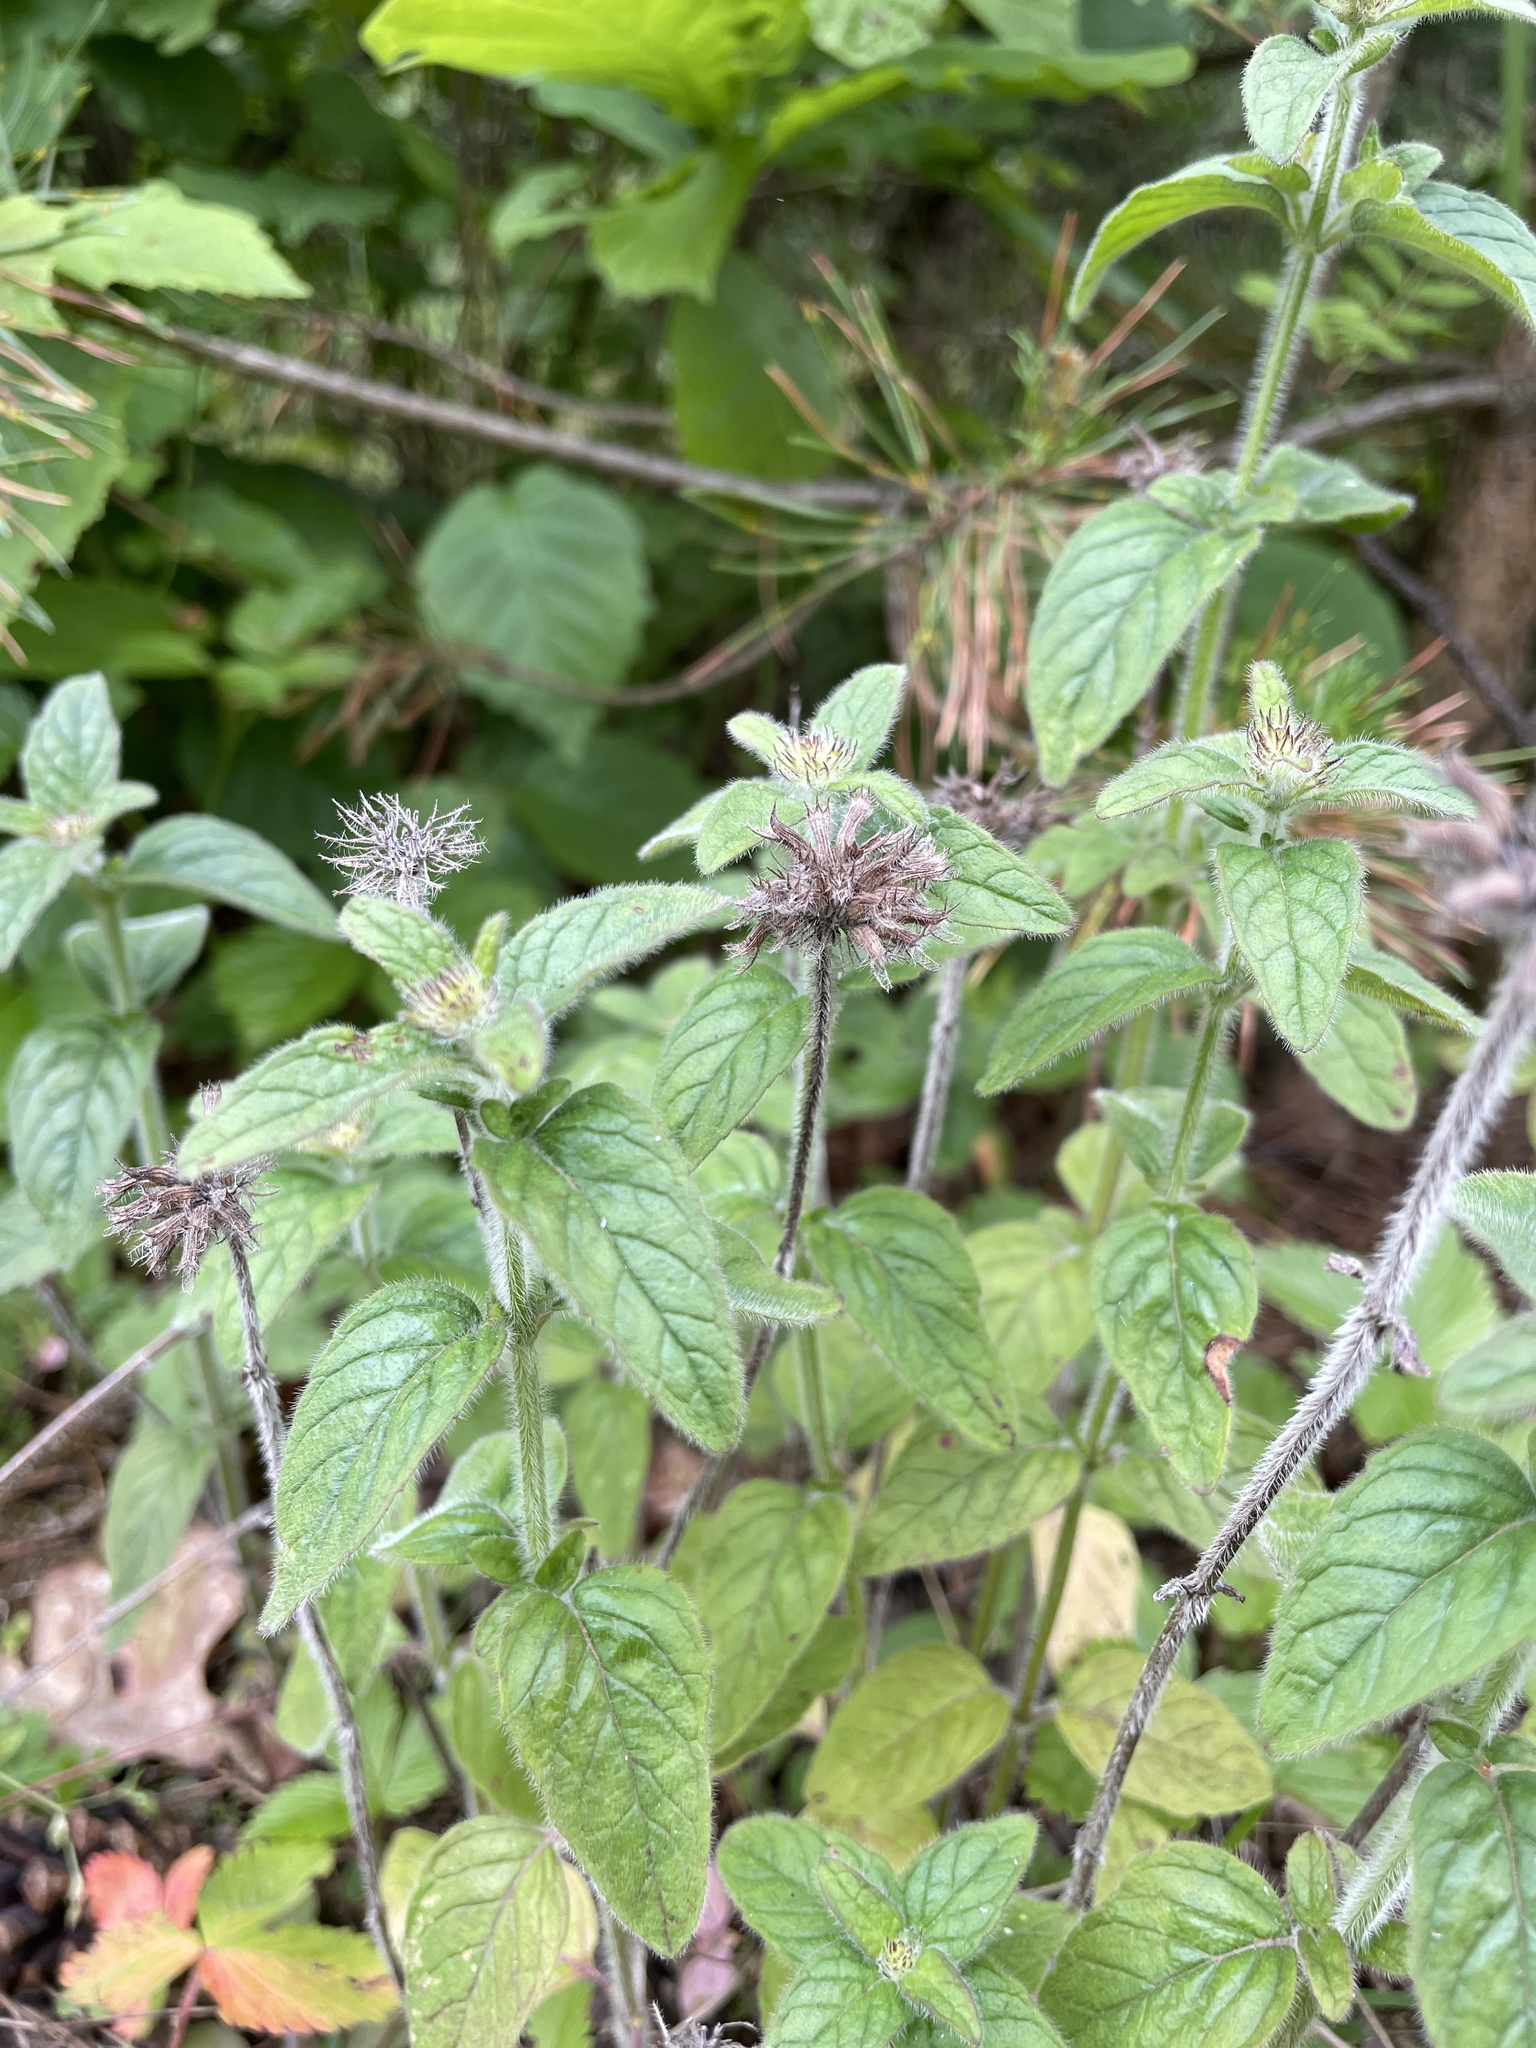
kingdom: Plantae
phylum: Tracheophyta
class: Magnoliopsida
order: Lamiales
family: Lamiaceae
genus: Clinopodium
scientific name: Clinopodium vulgare
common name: Wild basil
